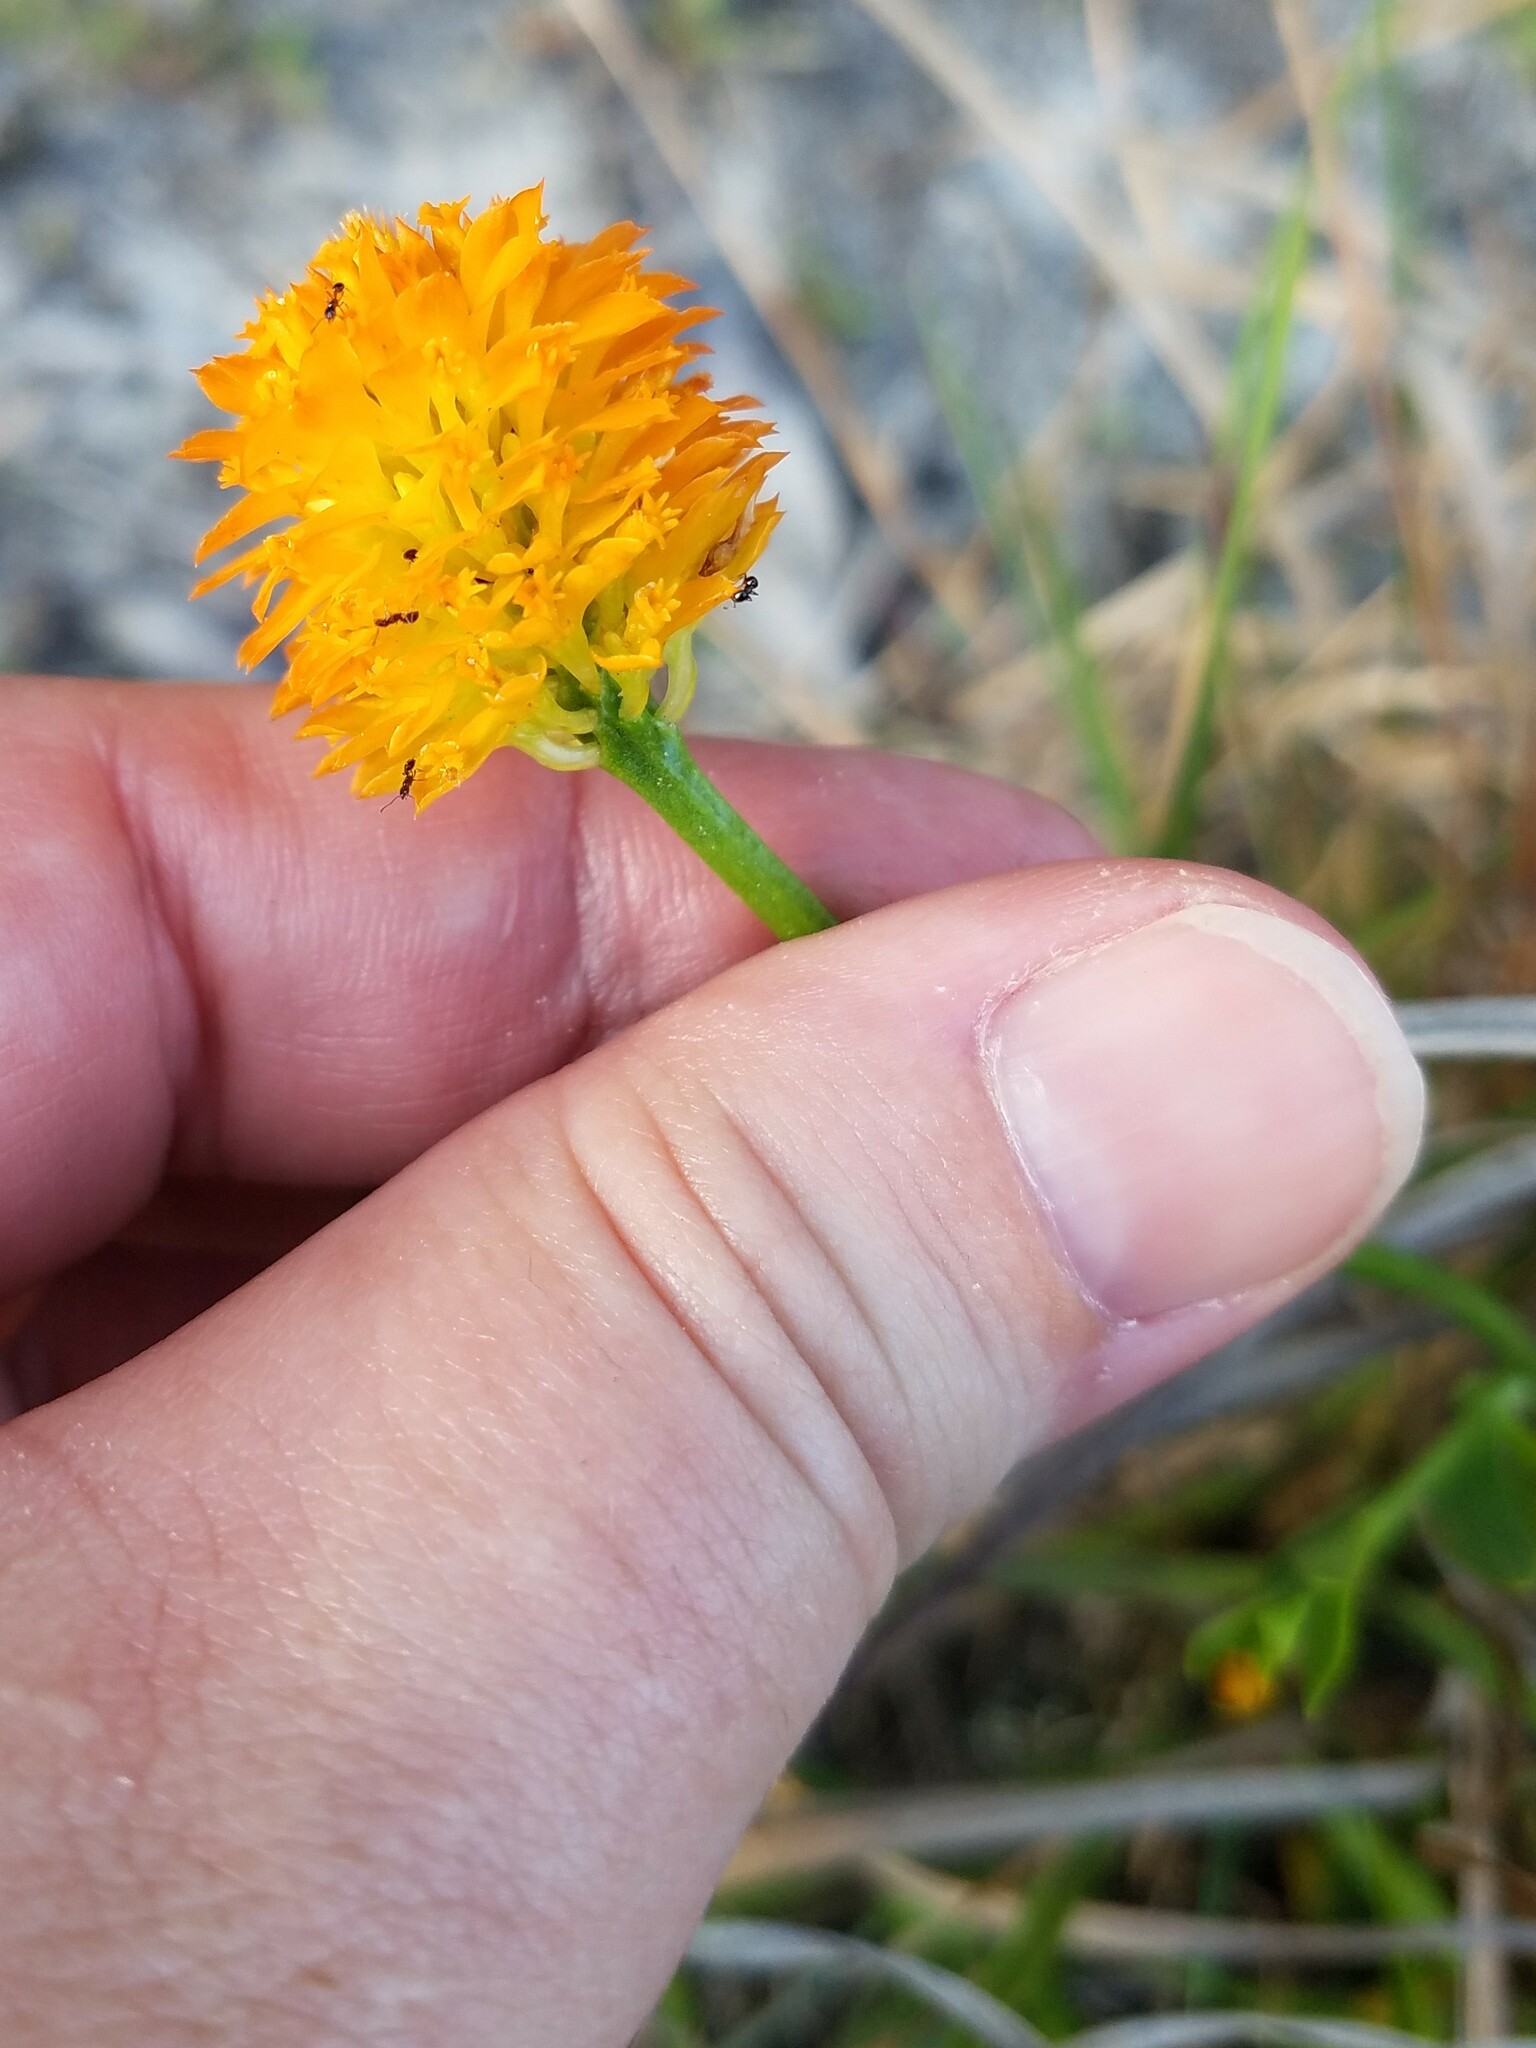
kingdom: Plantae
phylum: Tracheophyta
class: Magnoliopsida
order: Fabales
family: Polygalaceae
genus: Polygala
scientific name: Polygala lutea
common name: Orange milkwort
